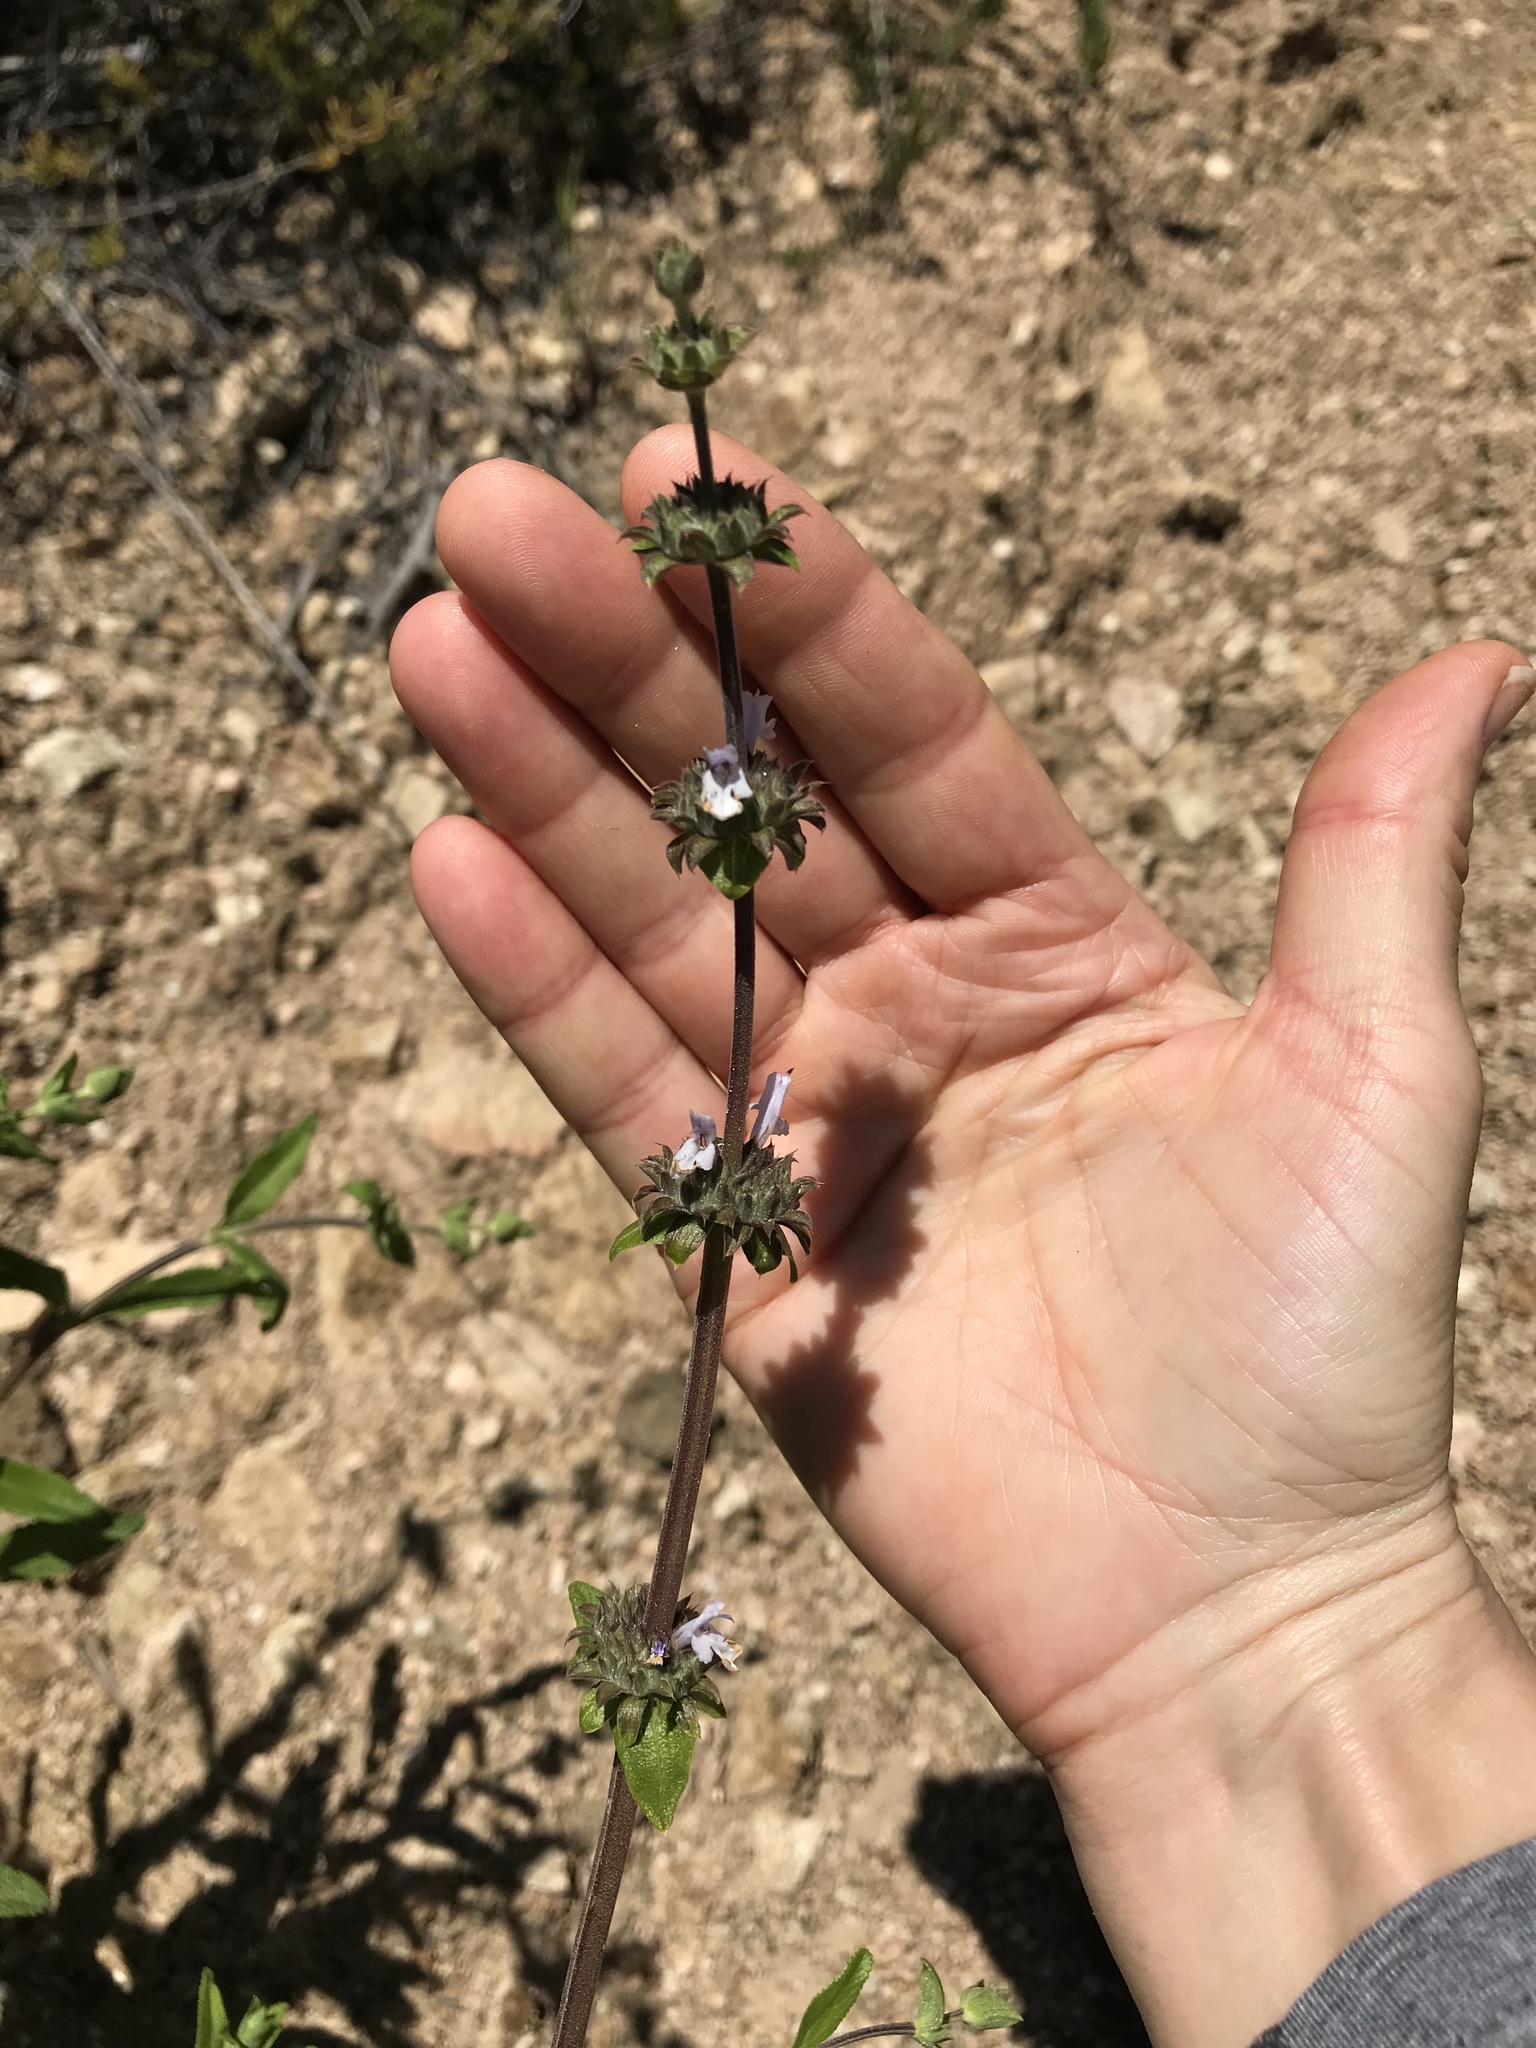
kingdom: Plantae
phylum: Tracheophyta
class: Magnoliopsida
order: Lamiales
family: Lamiaceae
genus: Salvia
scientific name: Salvia mellifera
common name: Black sage
